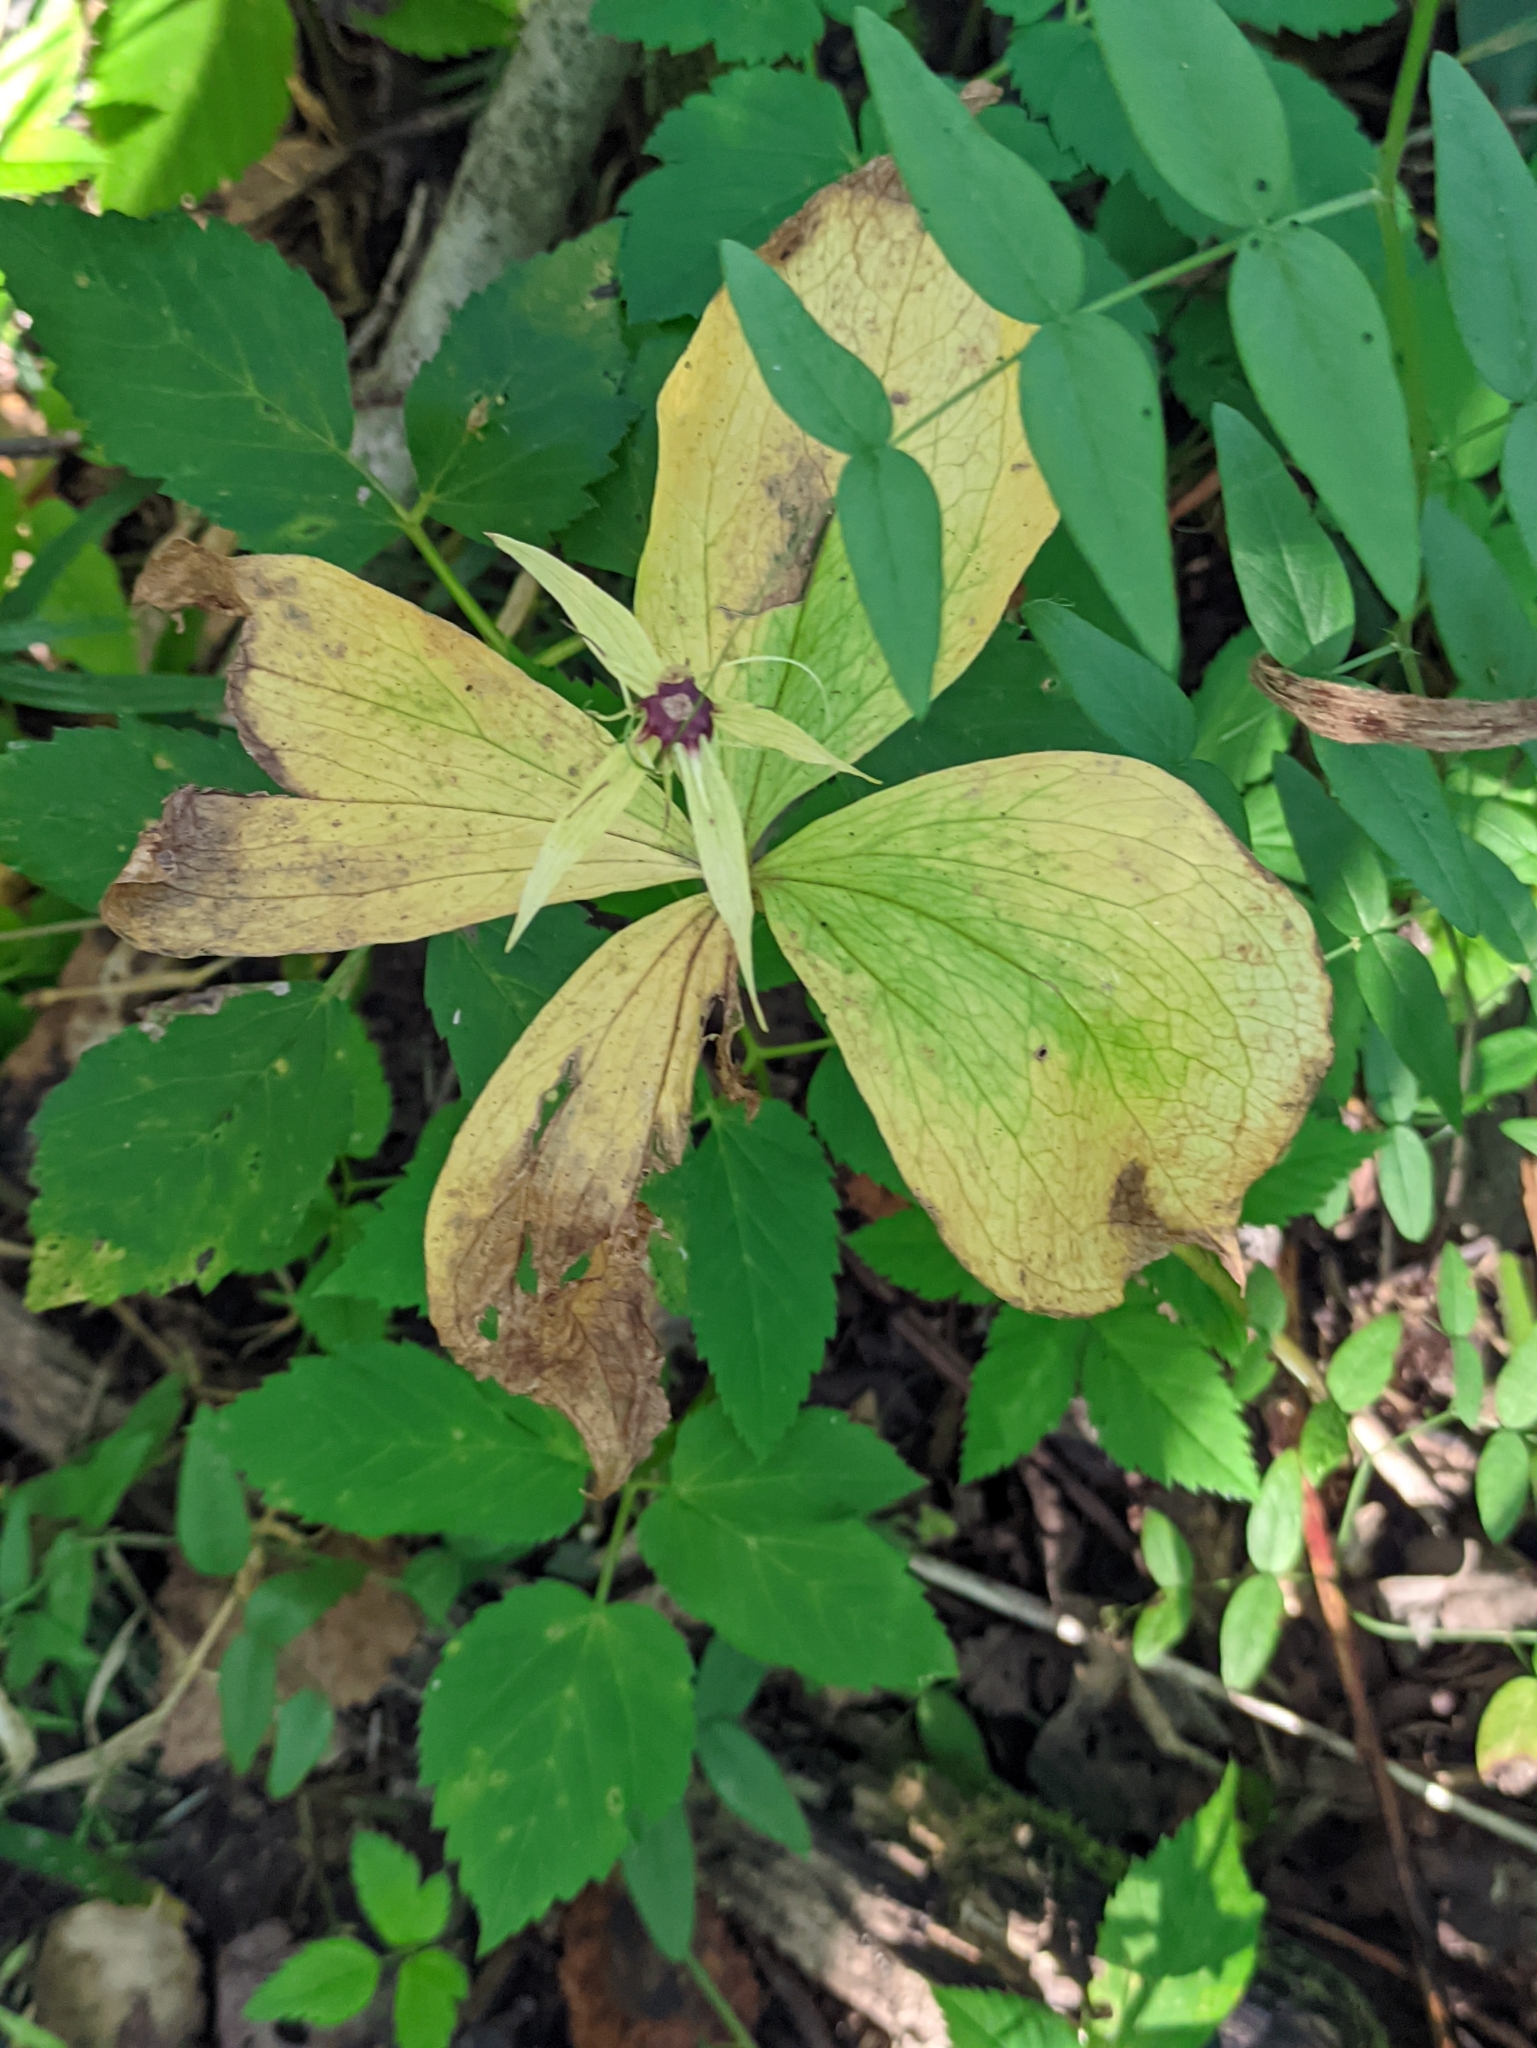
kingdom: Plantae
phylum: Tracheophyta
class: Liliopsida
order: Liliales
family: Melanthiaceae
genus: Paris
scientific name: Paris quadrifolia
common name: Herb-paris
